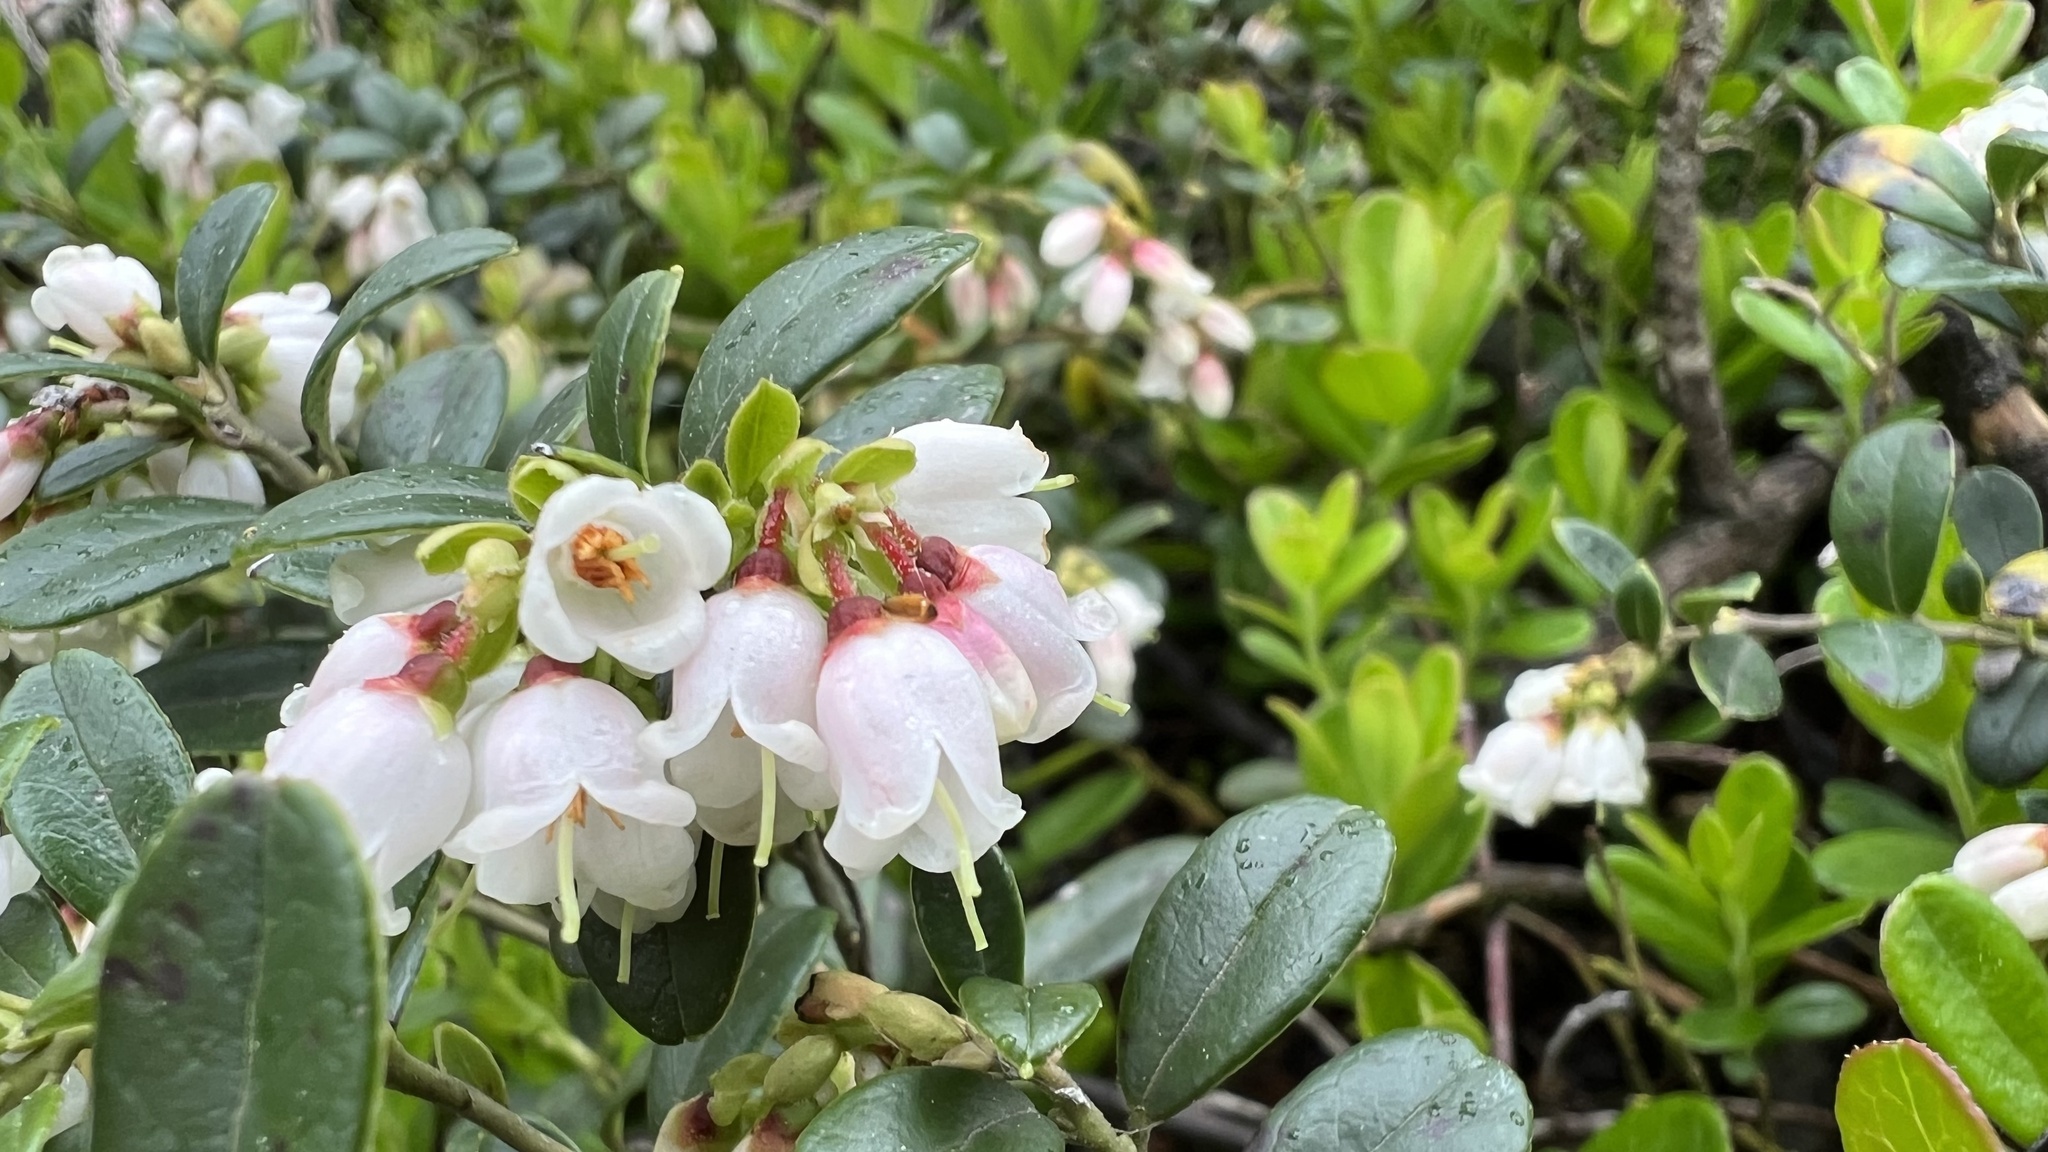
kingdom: Plantae
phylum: Tracheophyta
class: Magnoliopsida
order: Ericales
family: Ericaceae
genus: Vaccinium
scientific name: Vaccinium vitis-idaea
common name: Cowberry
